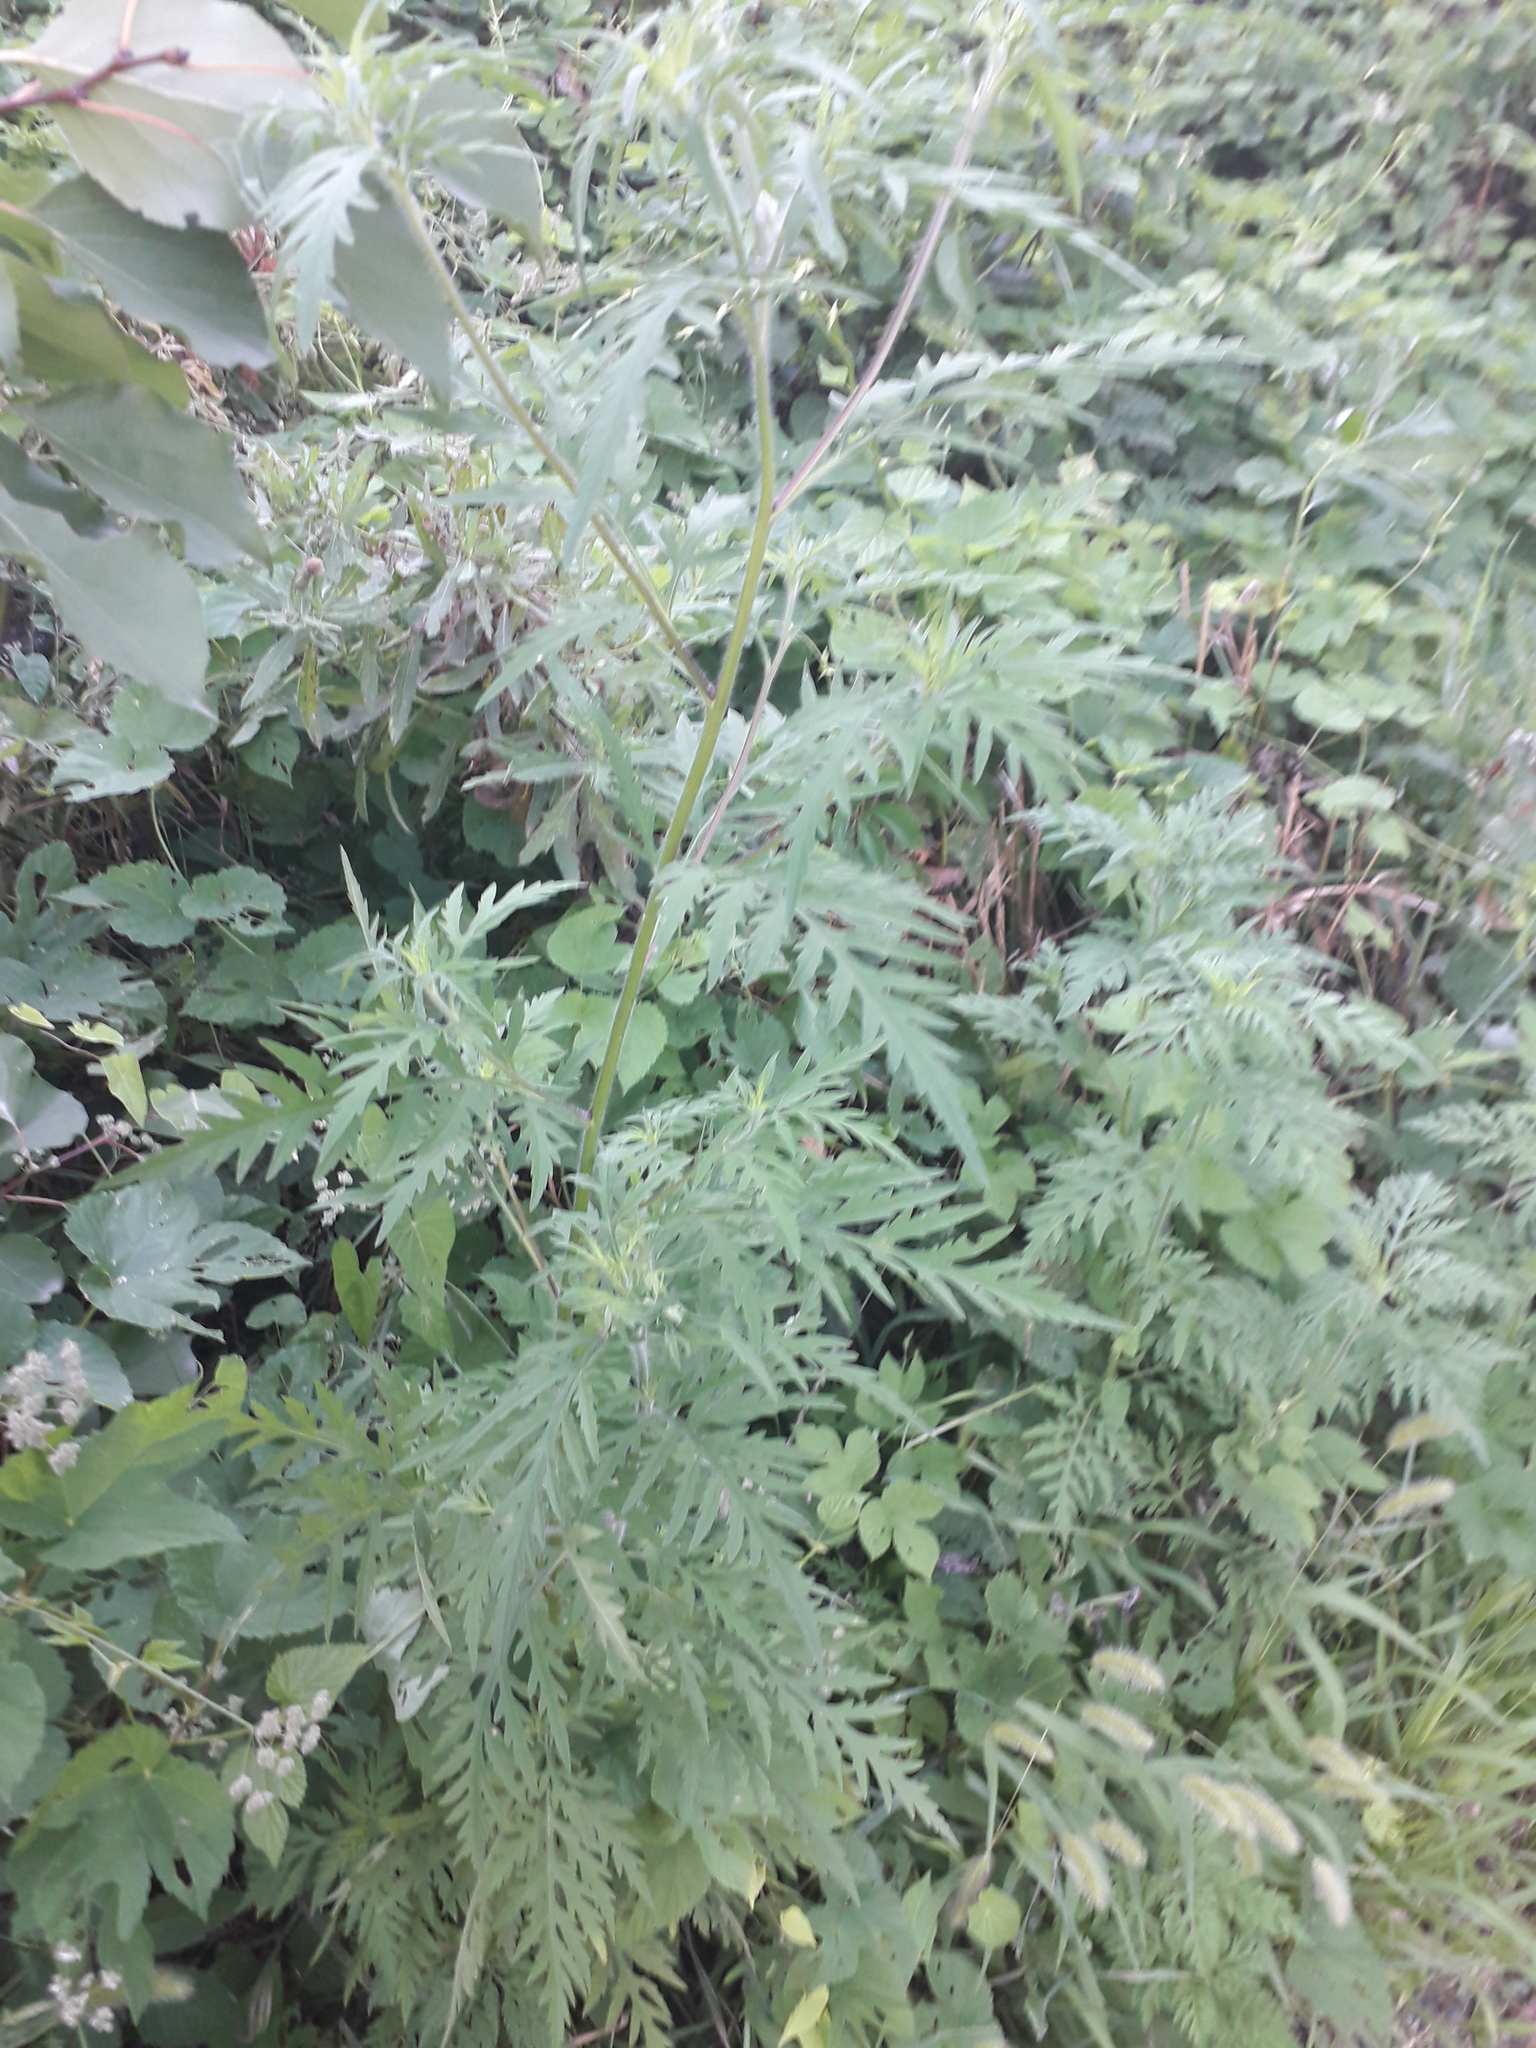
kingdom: Plantae
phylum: Tracheophyta
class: Magnoliopsida
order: Asterales
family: Asteraceae
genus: Ambrosia
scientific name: Ambrosia artemisiifolia
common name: Annual ragweed
